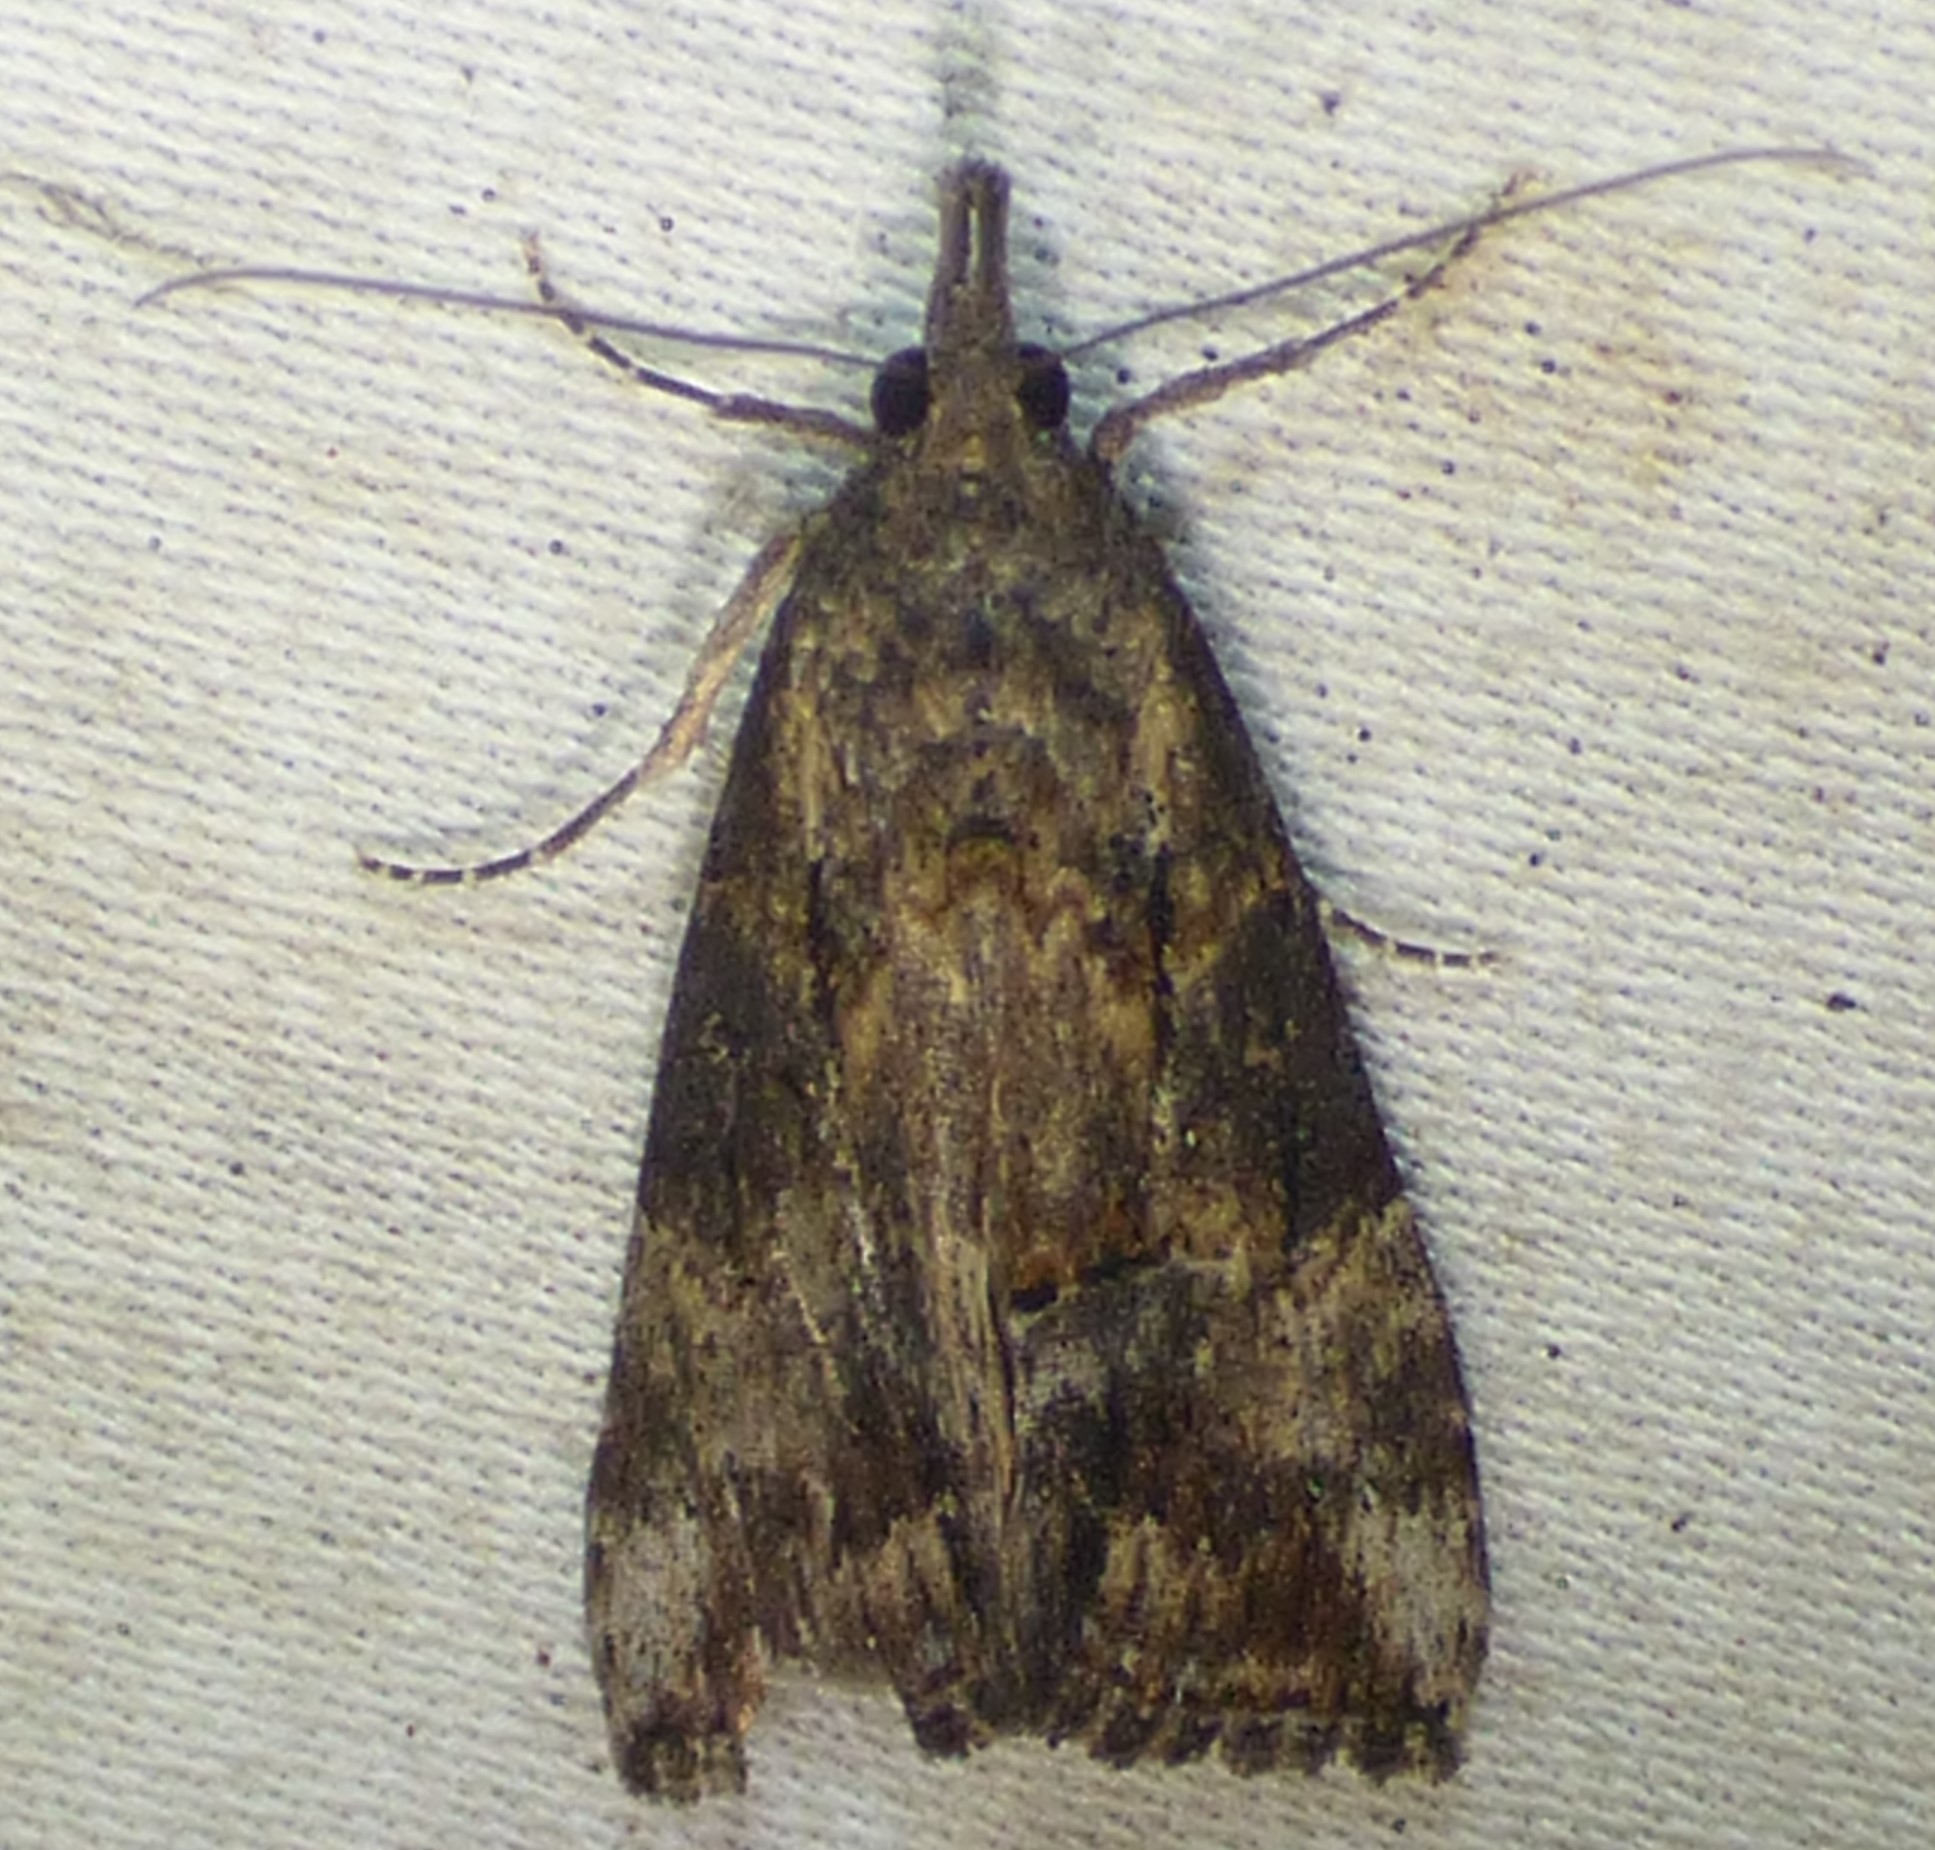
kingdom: Animalia
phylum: Arthropoda
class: Insecta
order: Lepidoptera
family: Erebidae
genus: Hypena
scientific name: Hypena scabra
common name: Green cloverworm
